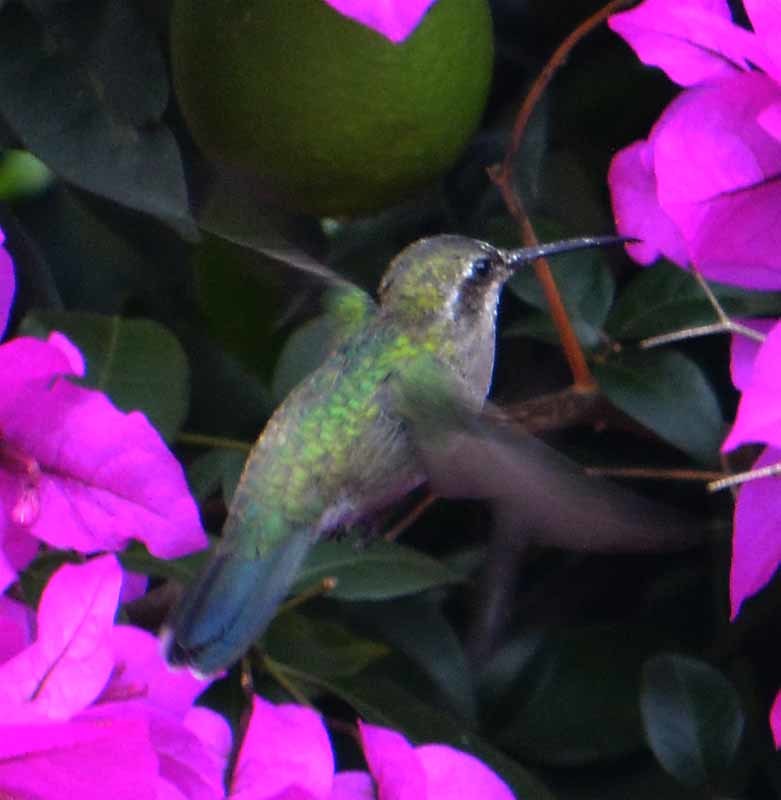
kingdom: Animalia
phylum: Chordata
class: Aves
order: Apodiformes
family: Trochilidae
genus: Cynanthus
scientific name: Cynanthus latirostris
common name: Broad-billed hummingbird
